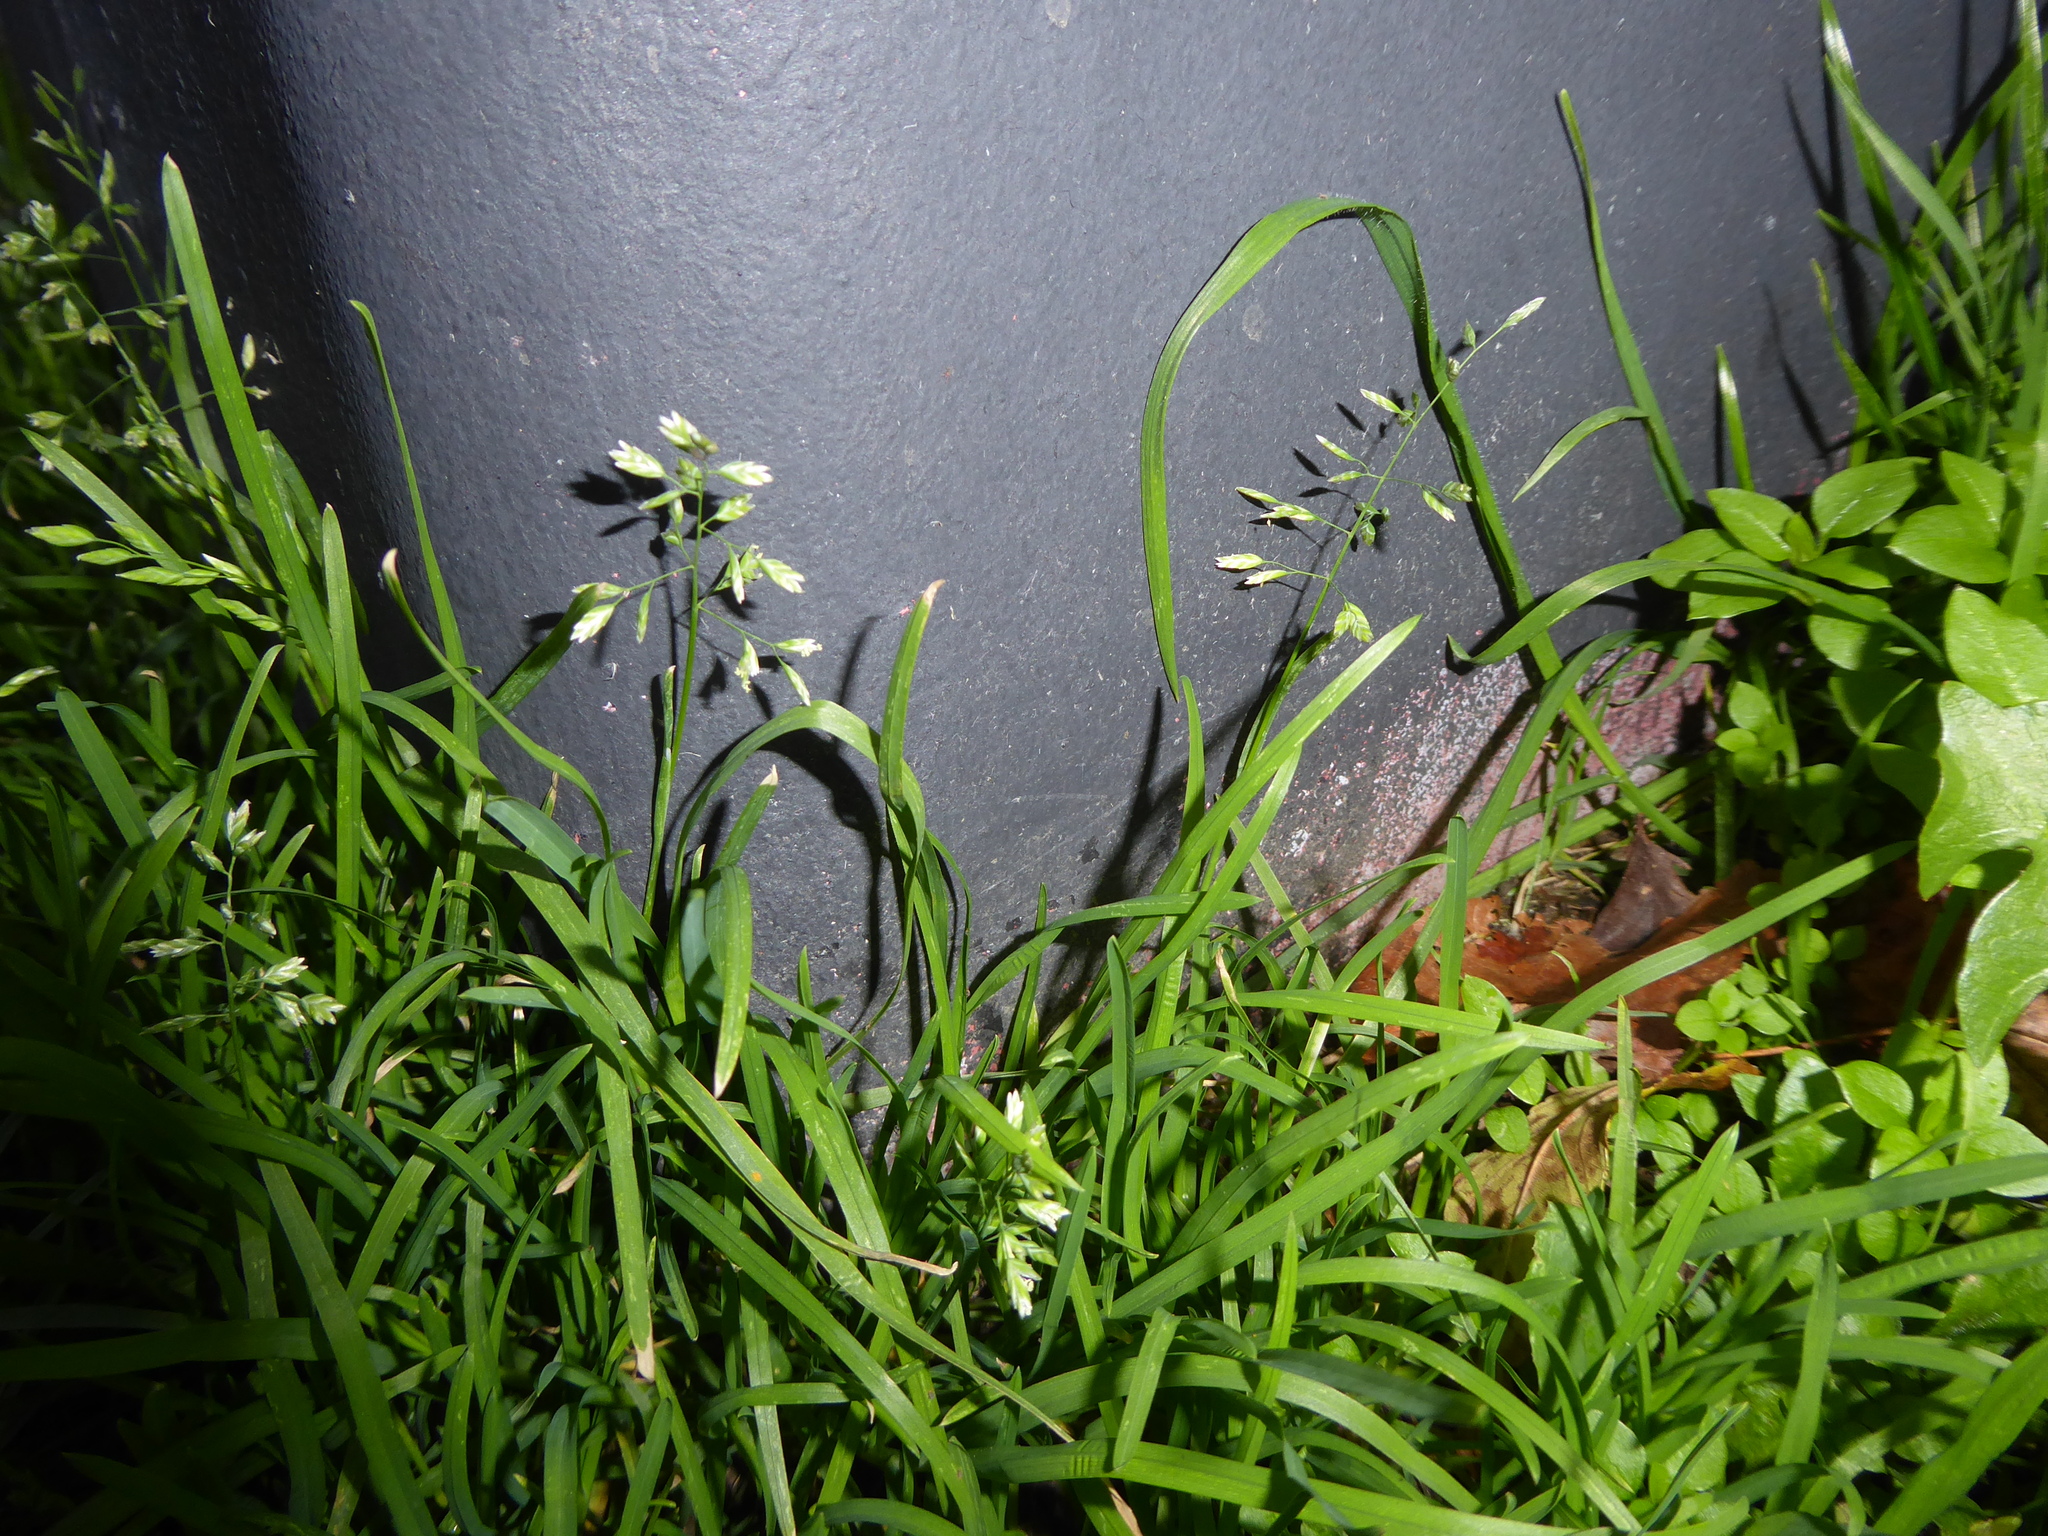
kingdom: Plantae
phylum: Tracheophyta
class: Liliopsida
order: Poales
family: Poaceae
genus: Poa
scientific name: Poa annua
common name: Annual bluegrass
